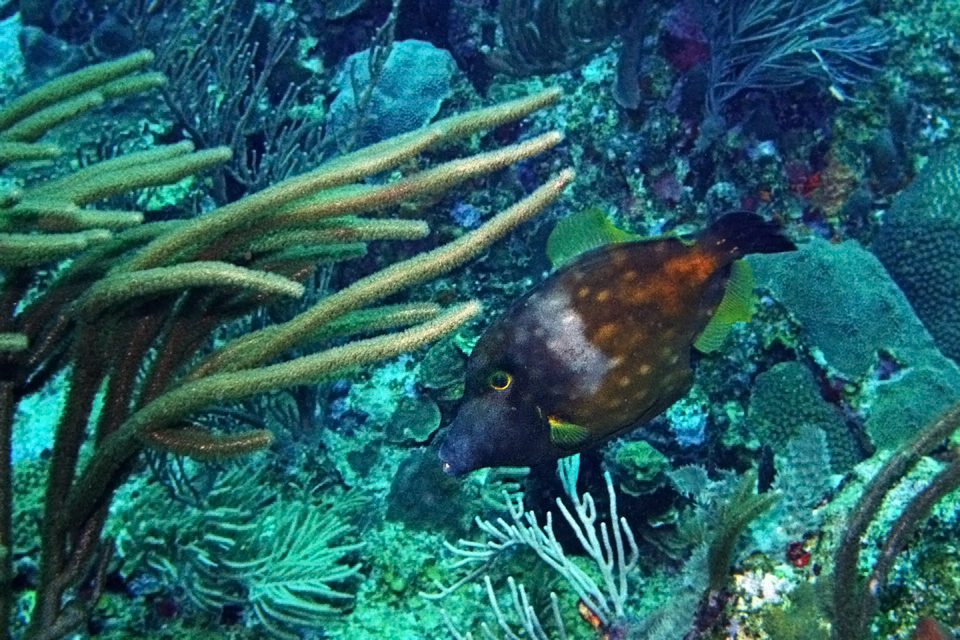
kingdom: Animalia
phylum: Chordata
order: Tetraodontiformes
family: Monacanthidae
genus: Cantherhines
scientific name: Cantherhines macrocerus
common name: Whitespotted filefish
